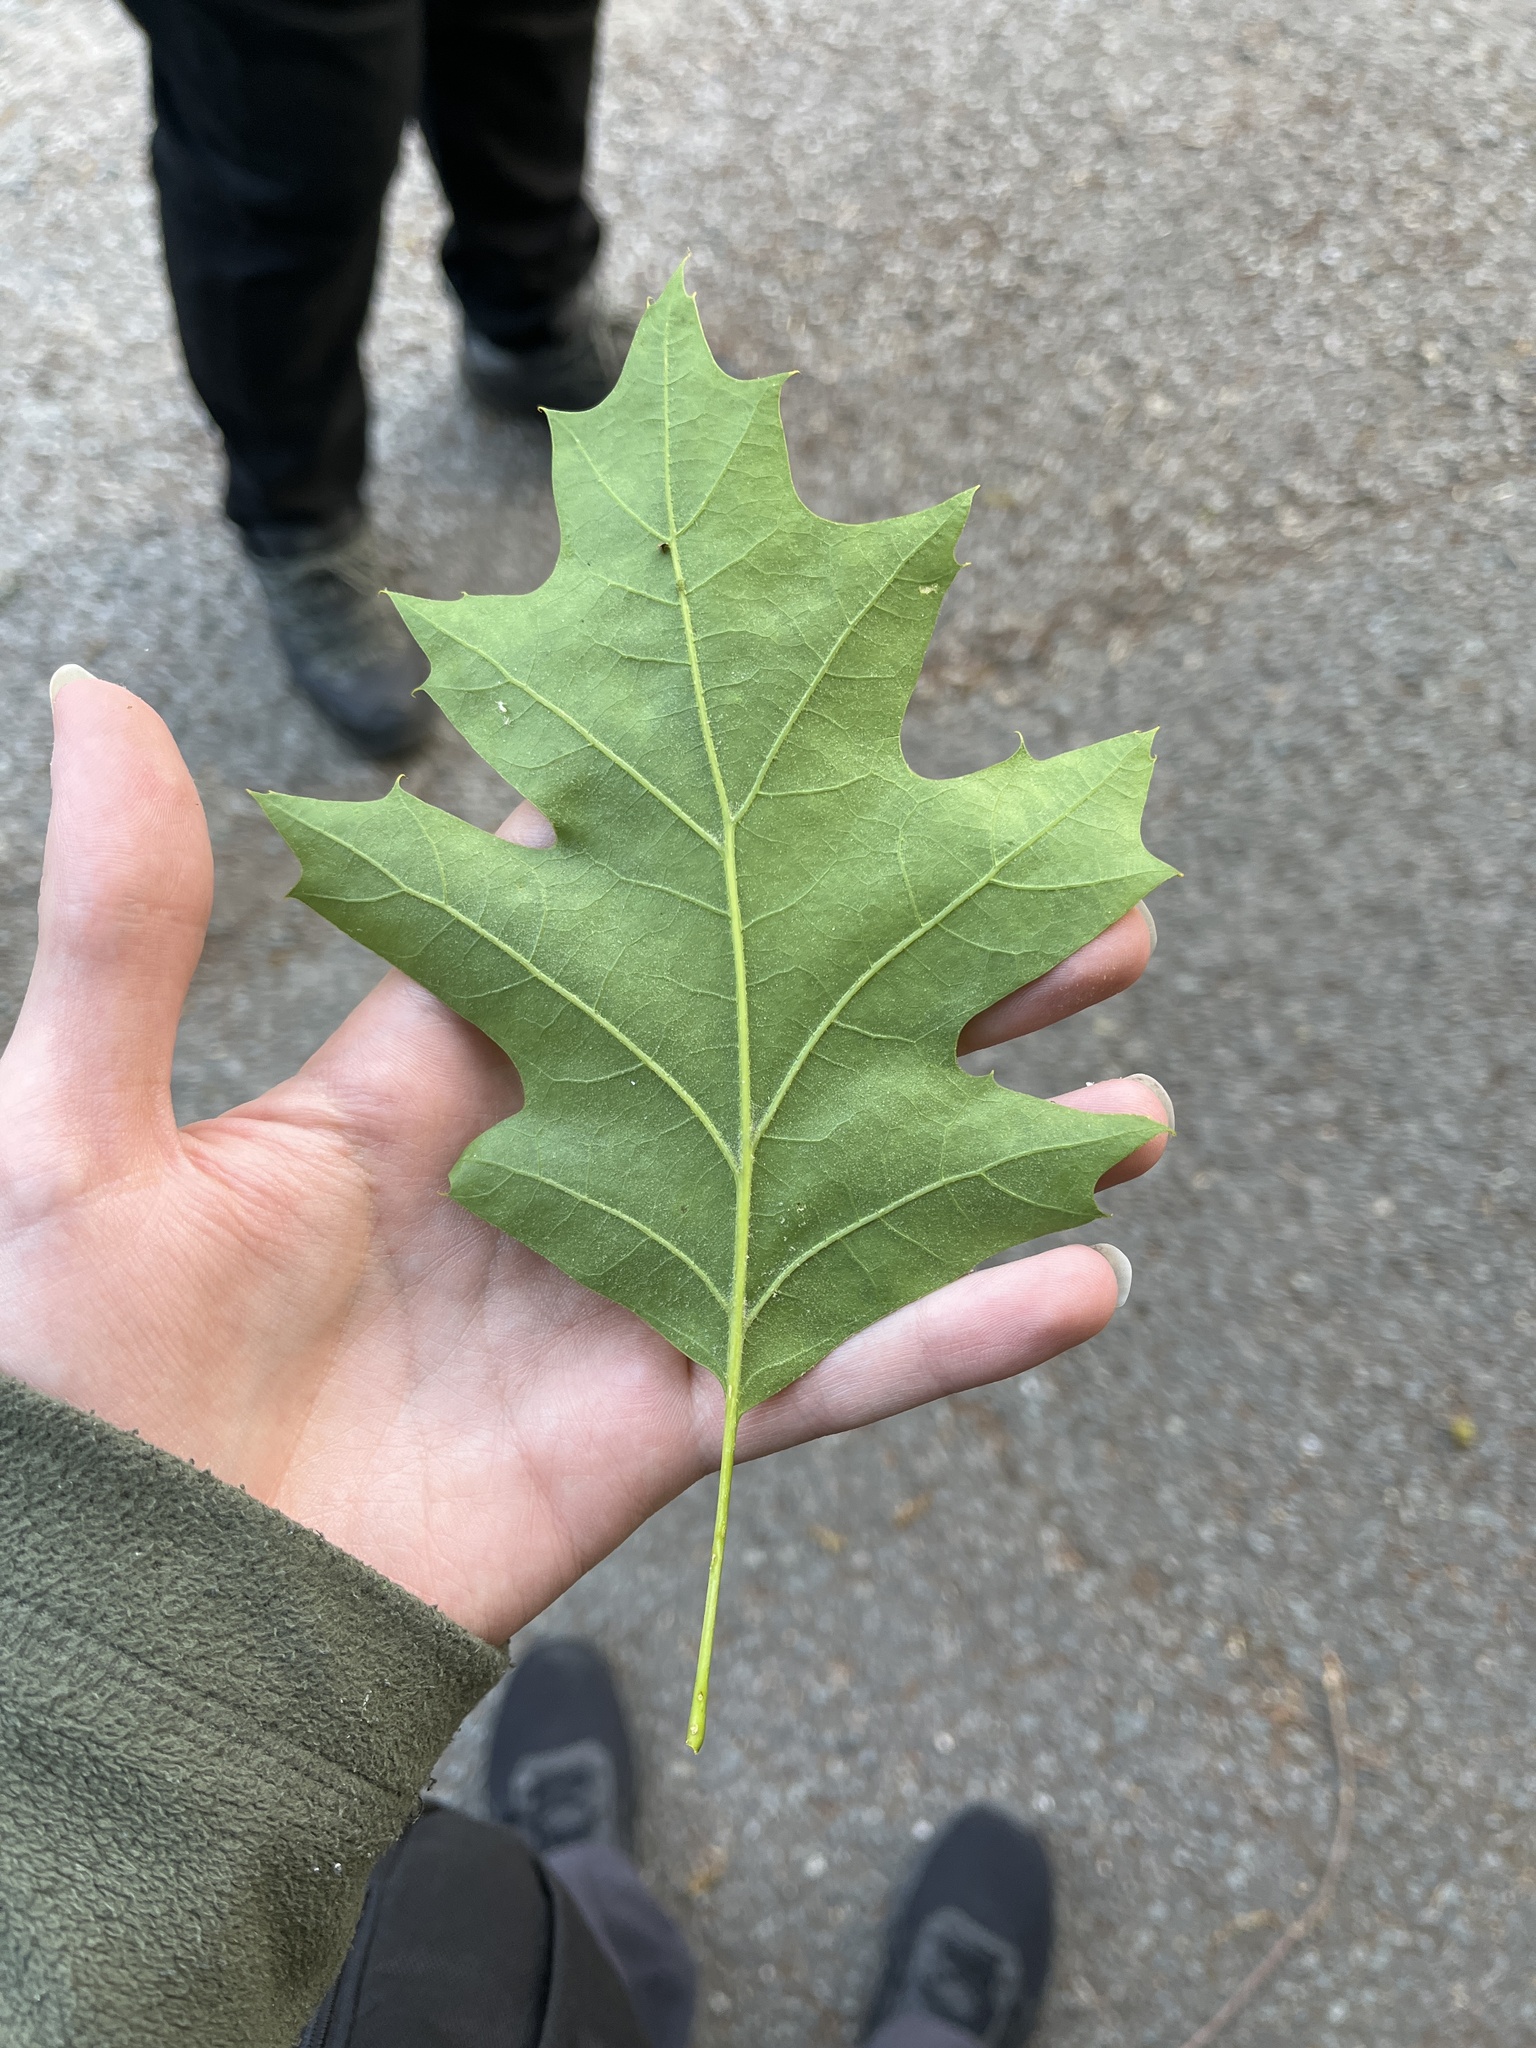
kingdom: Plantae
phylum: Tracheophyta
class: Magnoliopsida
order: Fagales
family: Fagaceae
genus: Quercus
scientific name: Quercus rubra
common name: Red oak
